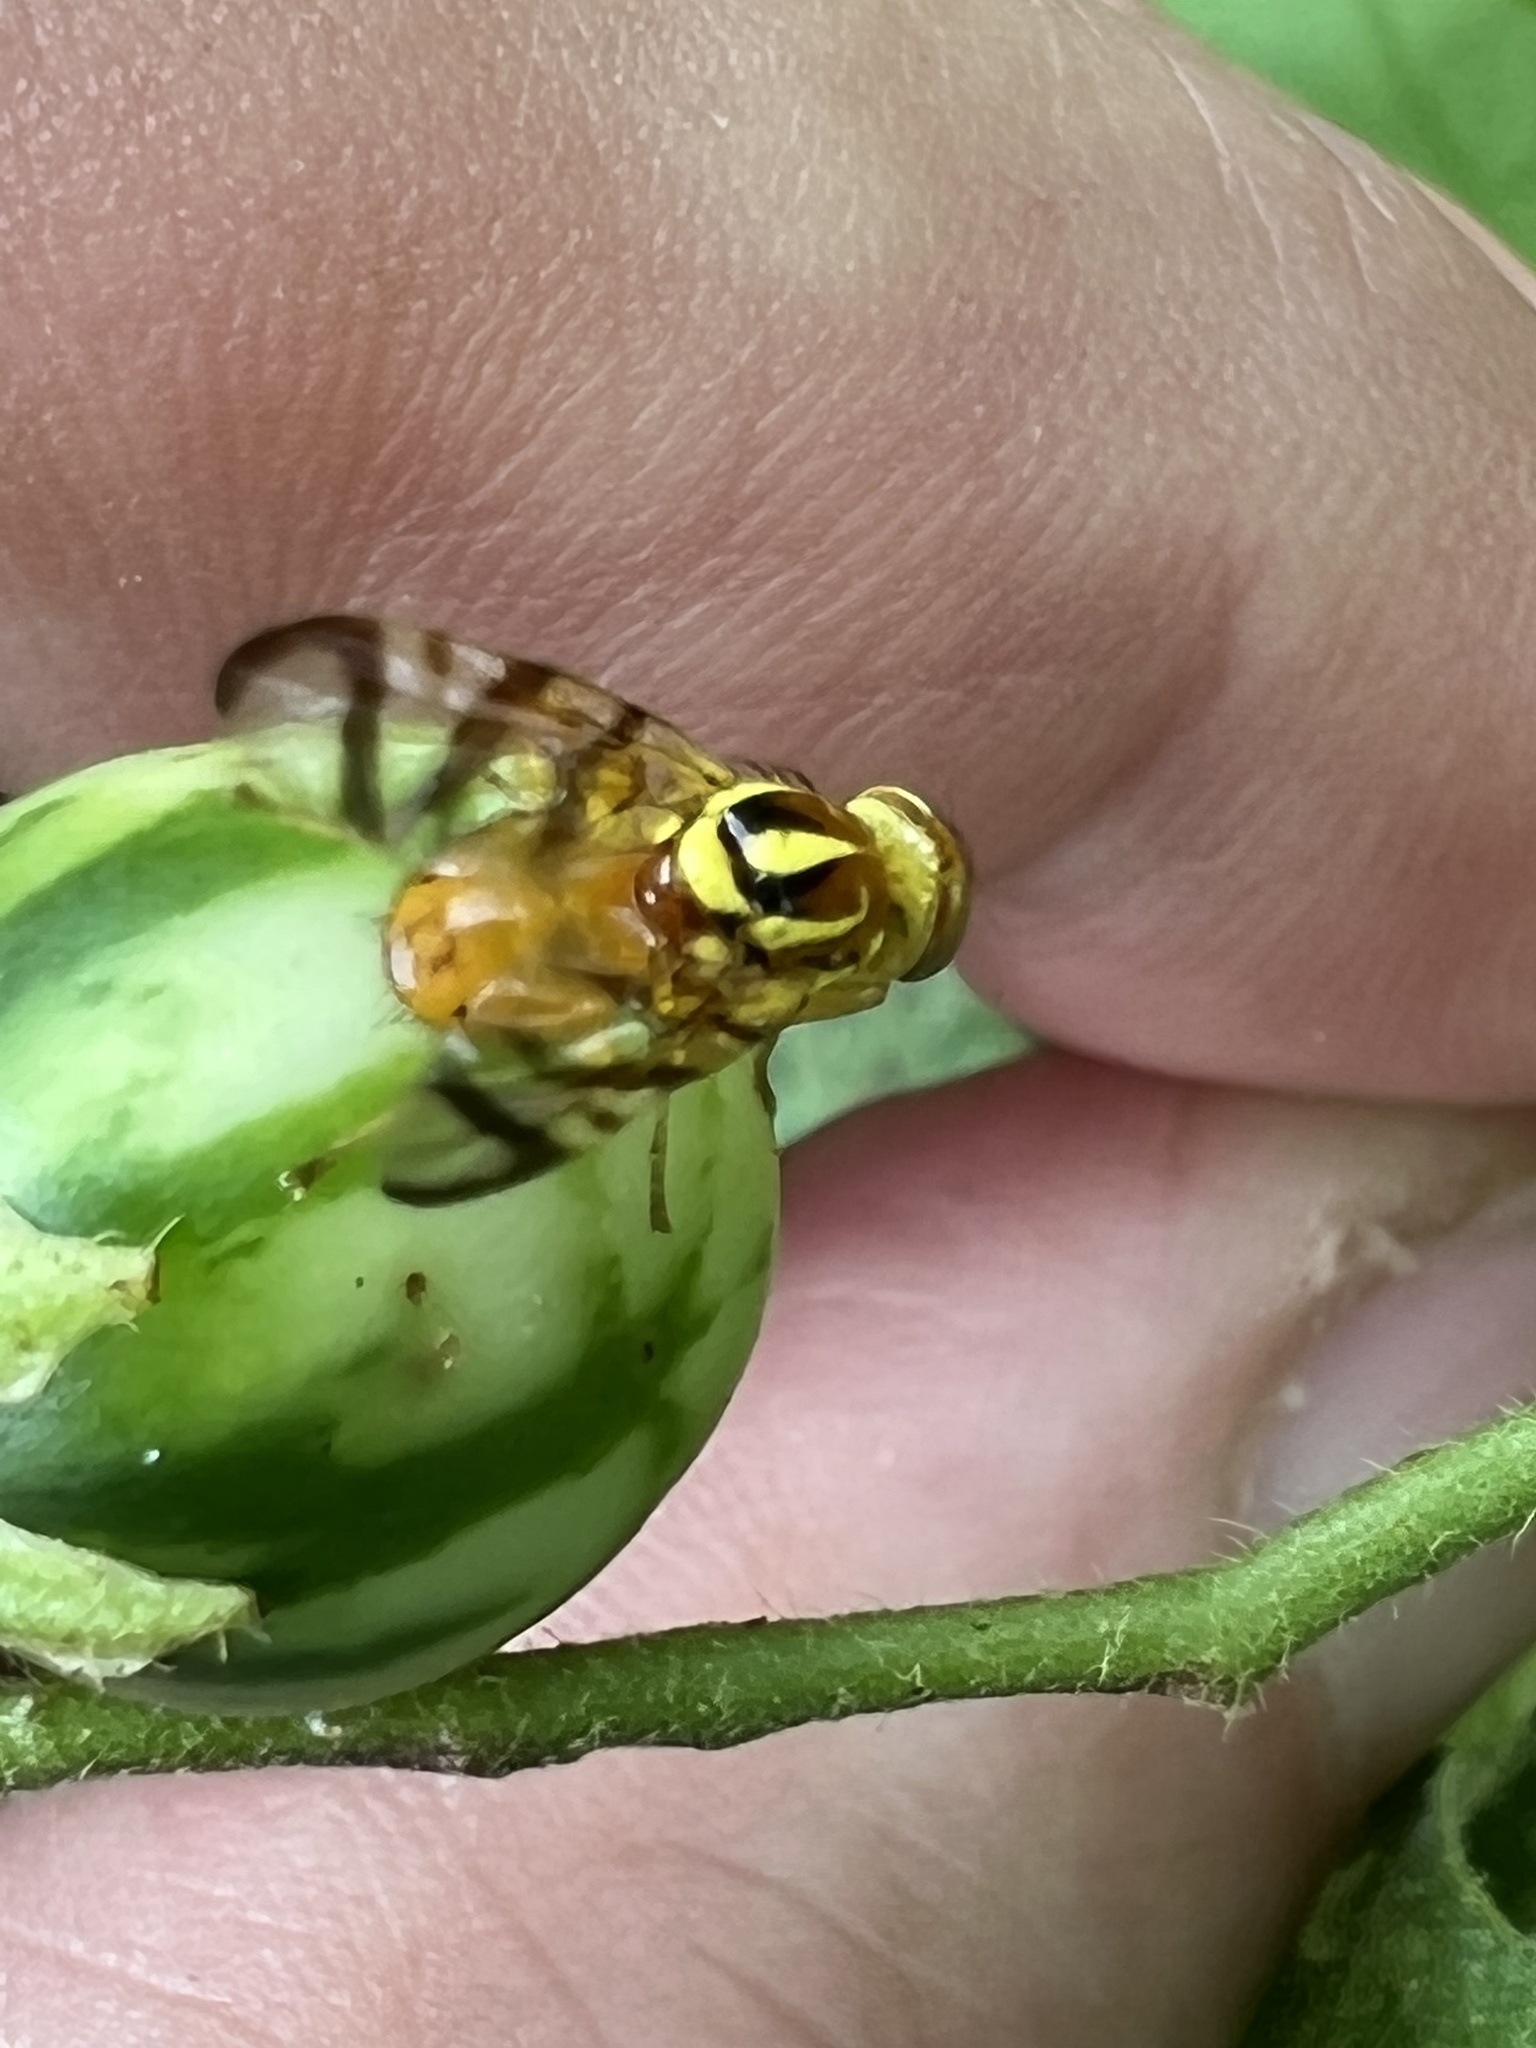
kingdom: Animalia
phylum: Arthropoda
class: Insecta
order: Diptera
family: Tephritidae
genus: Zonosemata
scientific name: Zonosemata electa
